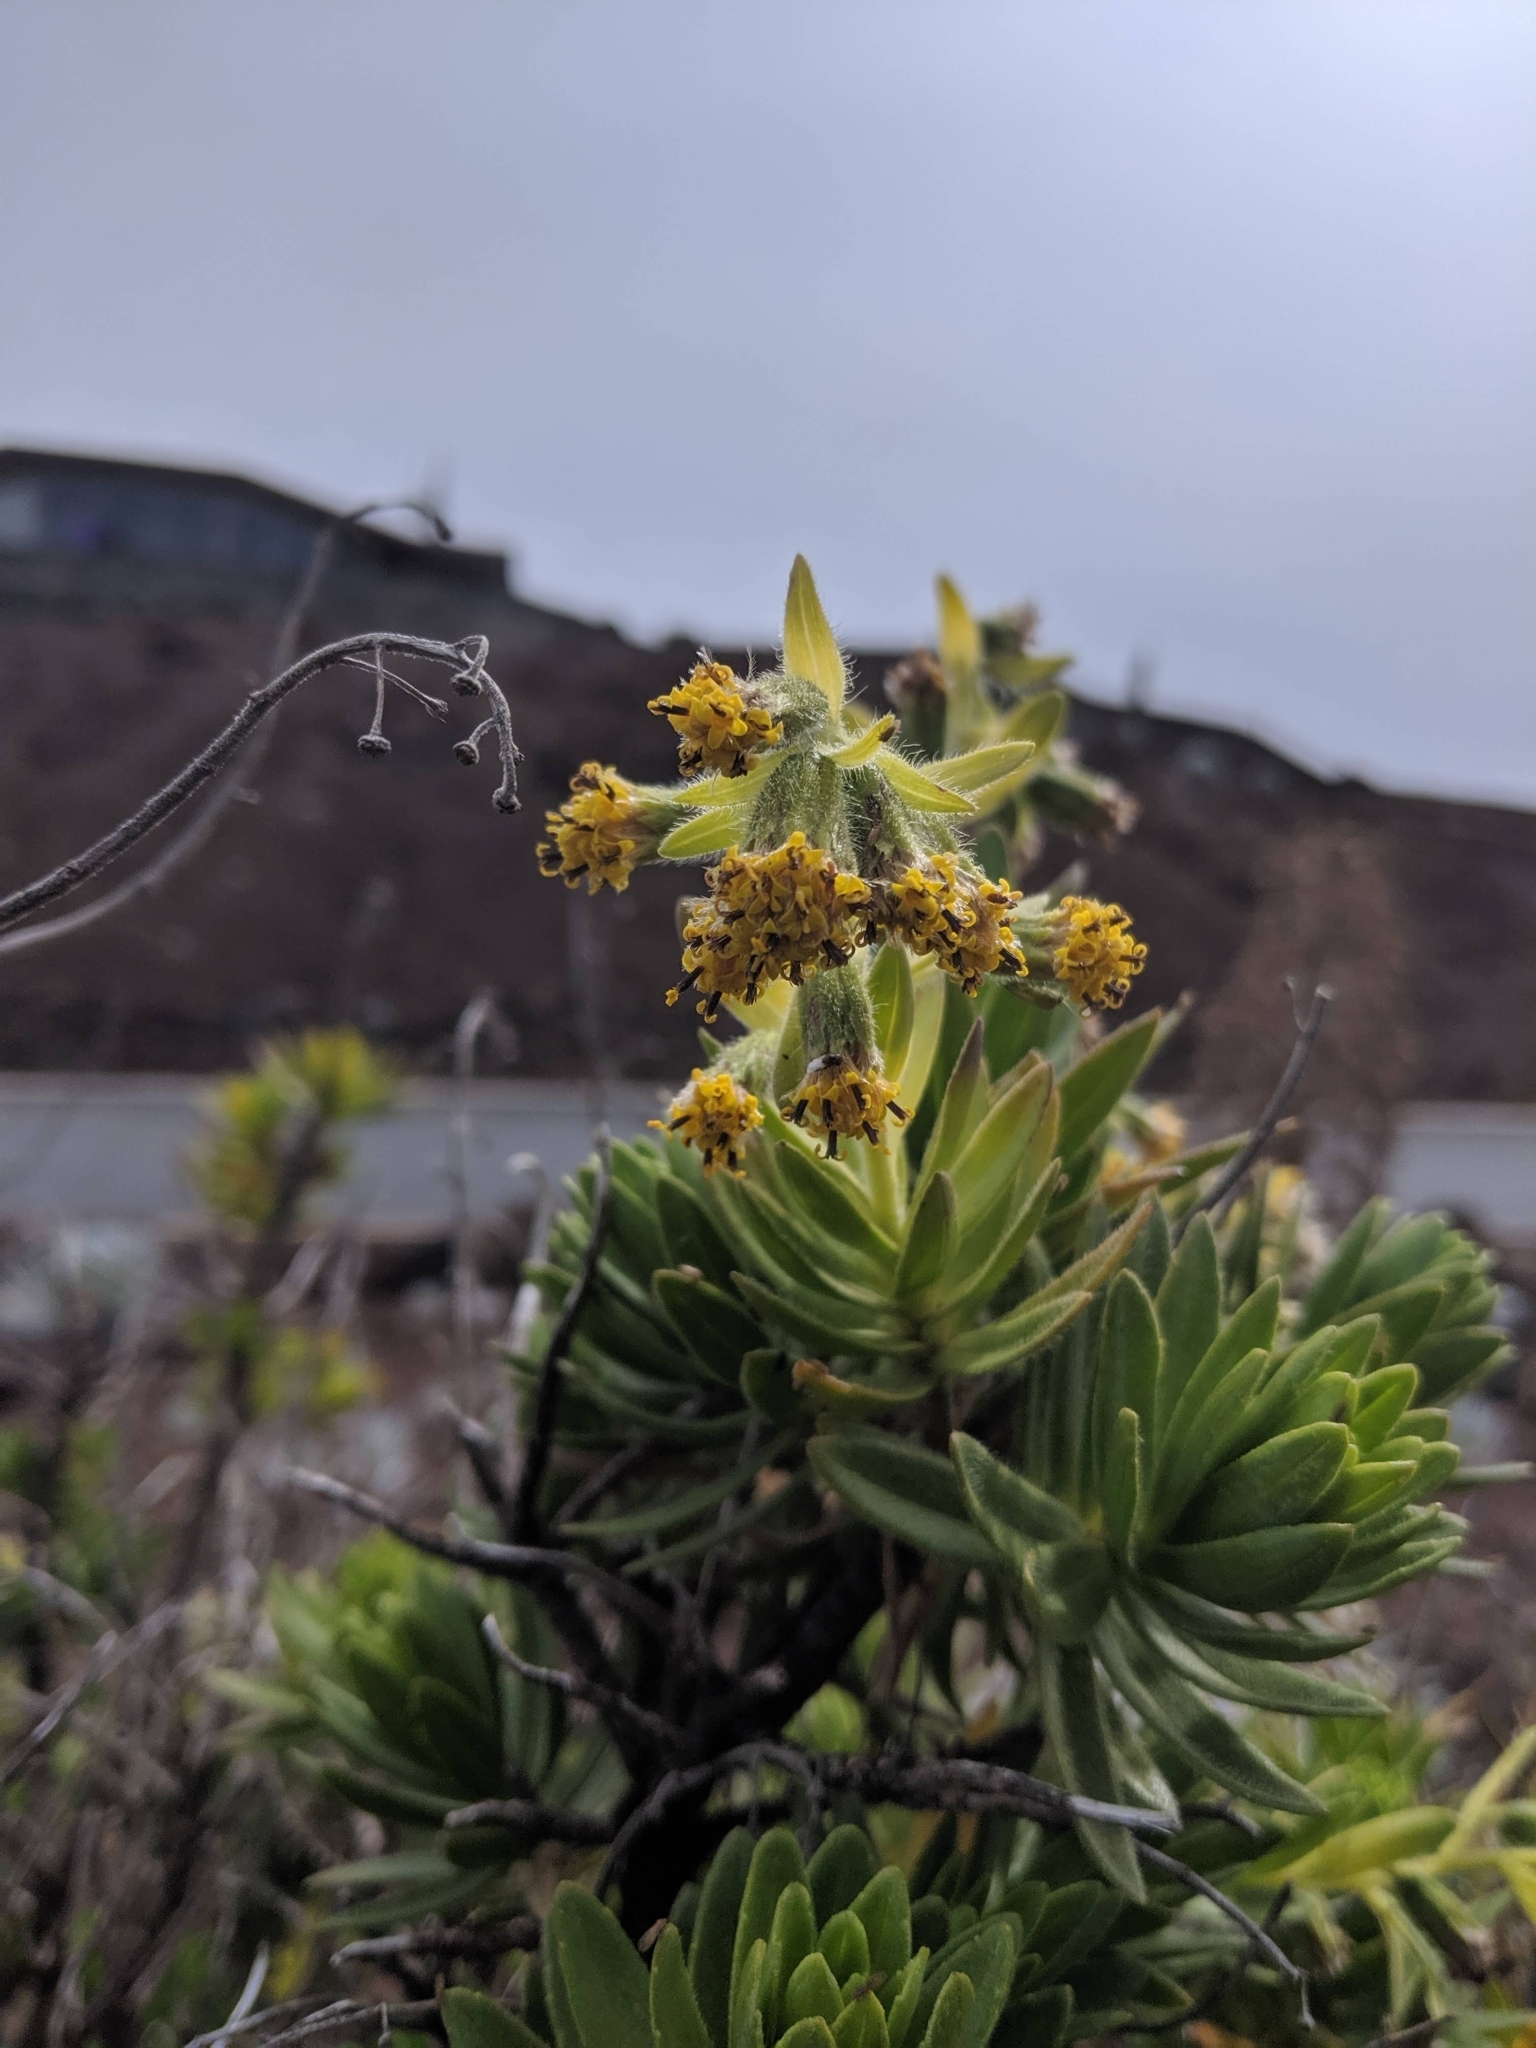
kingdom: Plantae
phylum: Tracheophyta
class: Magnoliopsida
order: Asterales
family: Asteraceae
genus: Dubautia
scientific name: Dubautia menziesii
